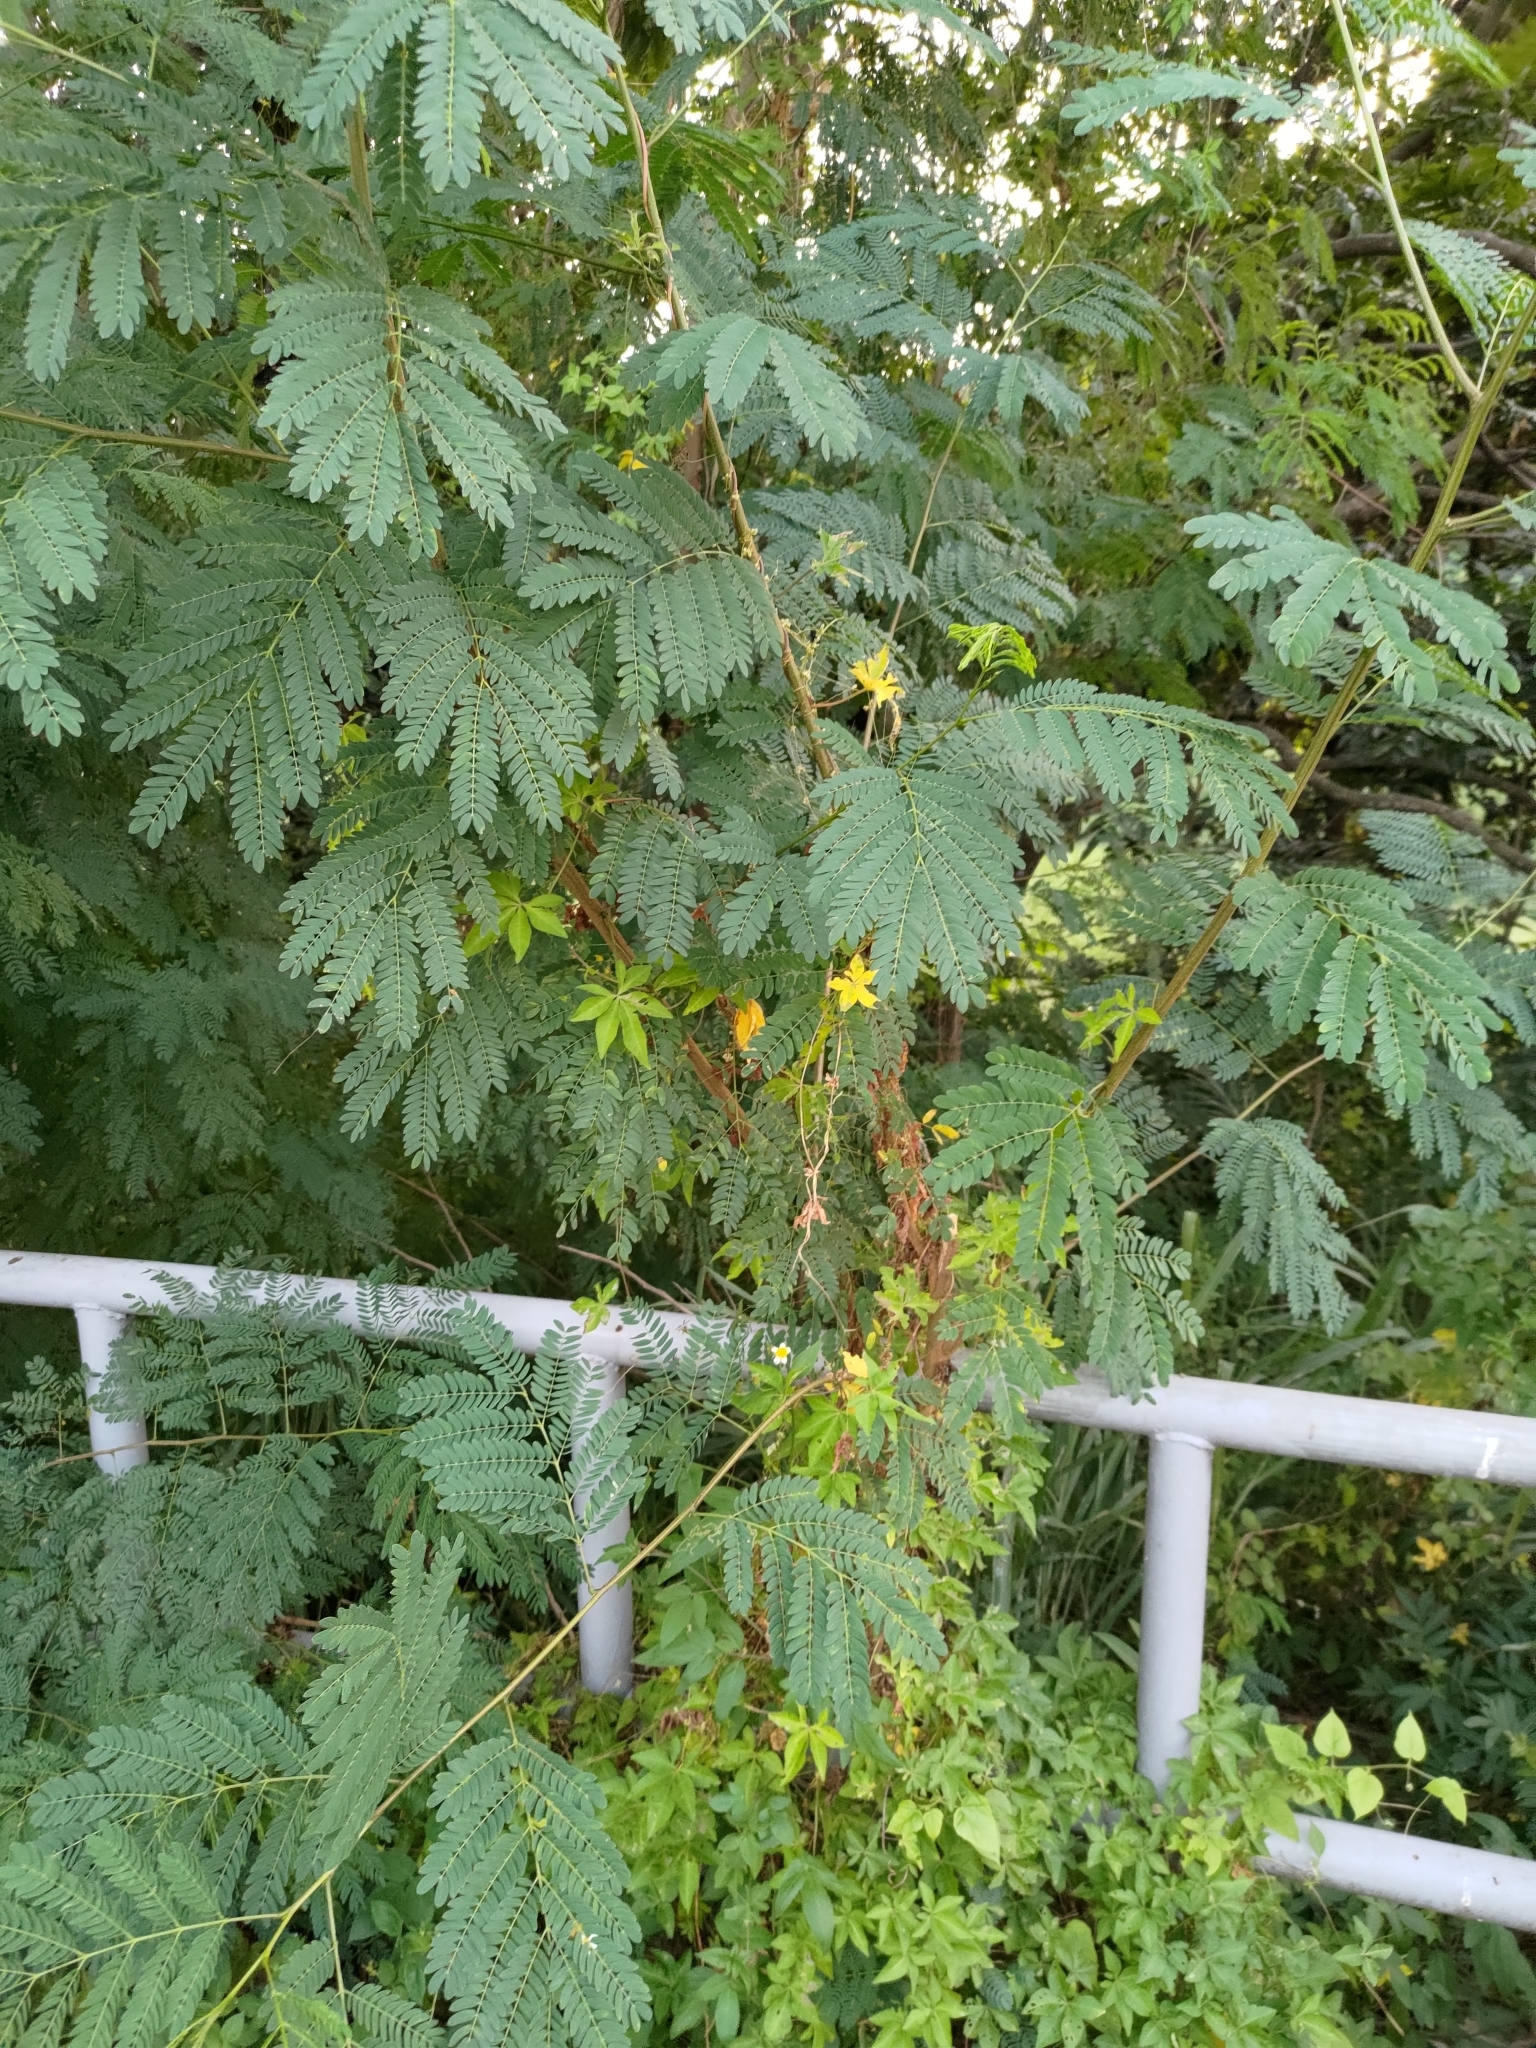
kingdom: Plantae
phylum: Tracheophyta
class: Magnoliopsida
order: Fabales
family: Fabaceae
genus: Leucaena
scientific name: Leucaena leucocephala
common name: White leadtree
